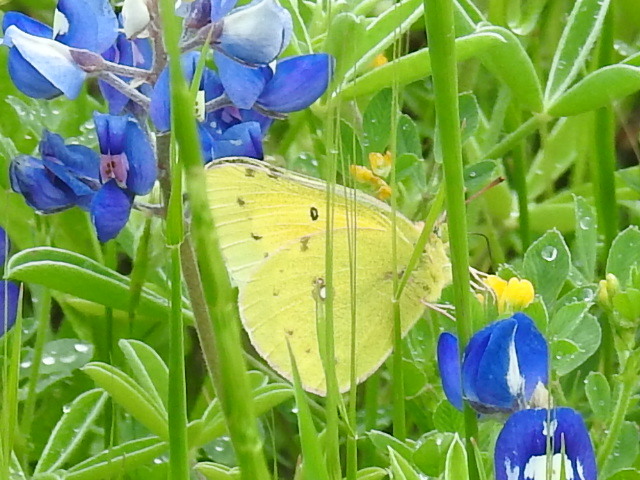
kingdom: Animalia
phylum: Arthropoda
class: Insecta
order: Lepidoptera
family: Pieridae
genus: Colias
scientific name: Colias eurytheme
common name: Alfalfa butterfly
